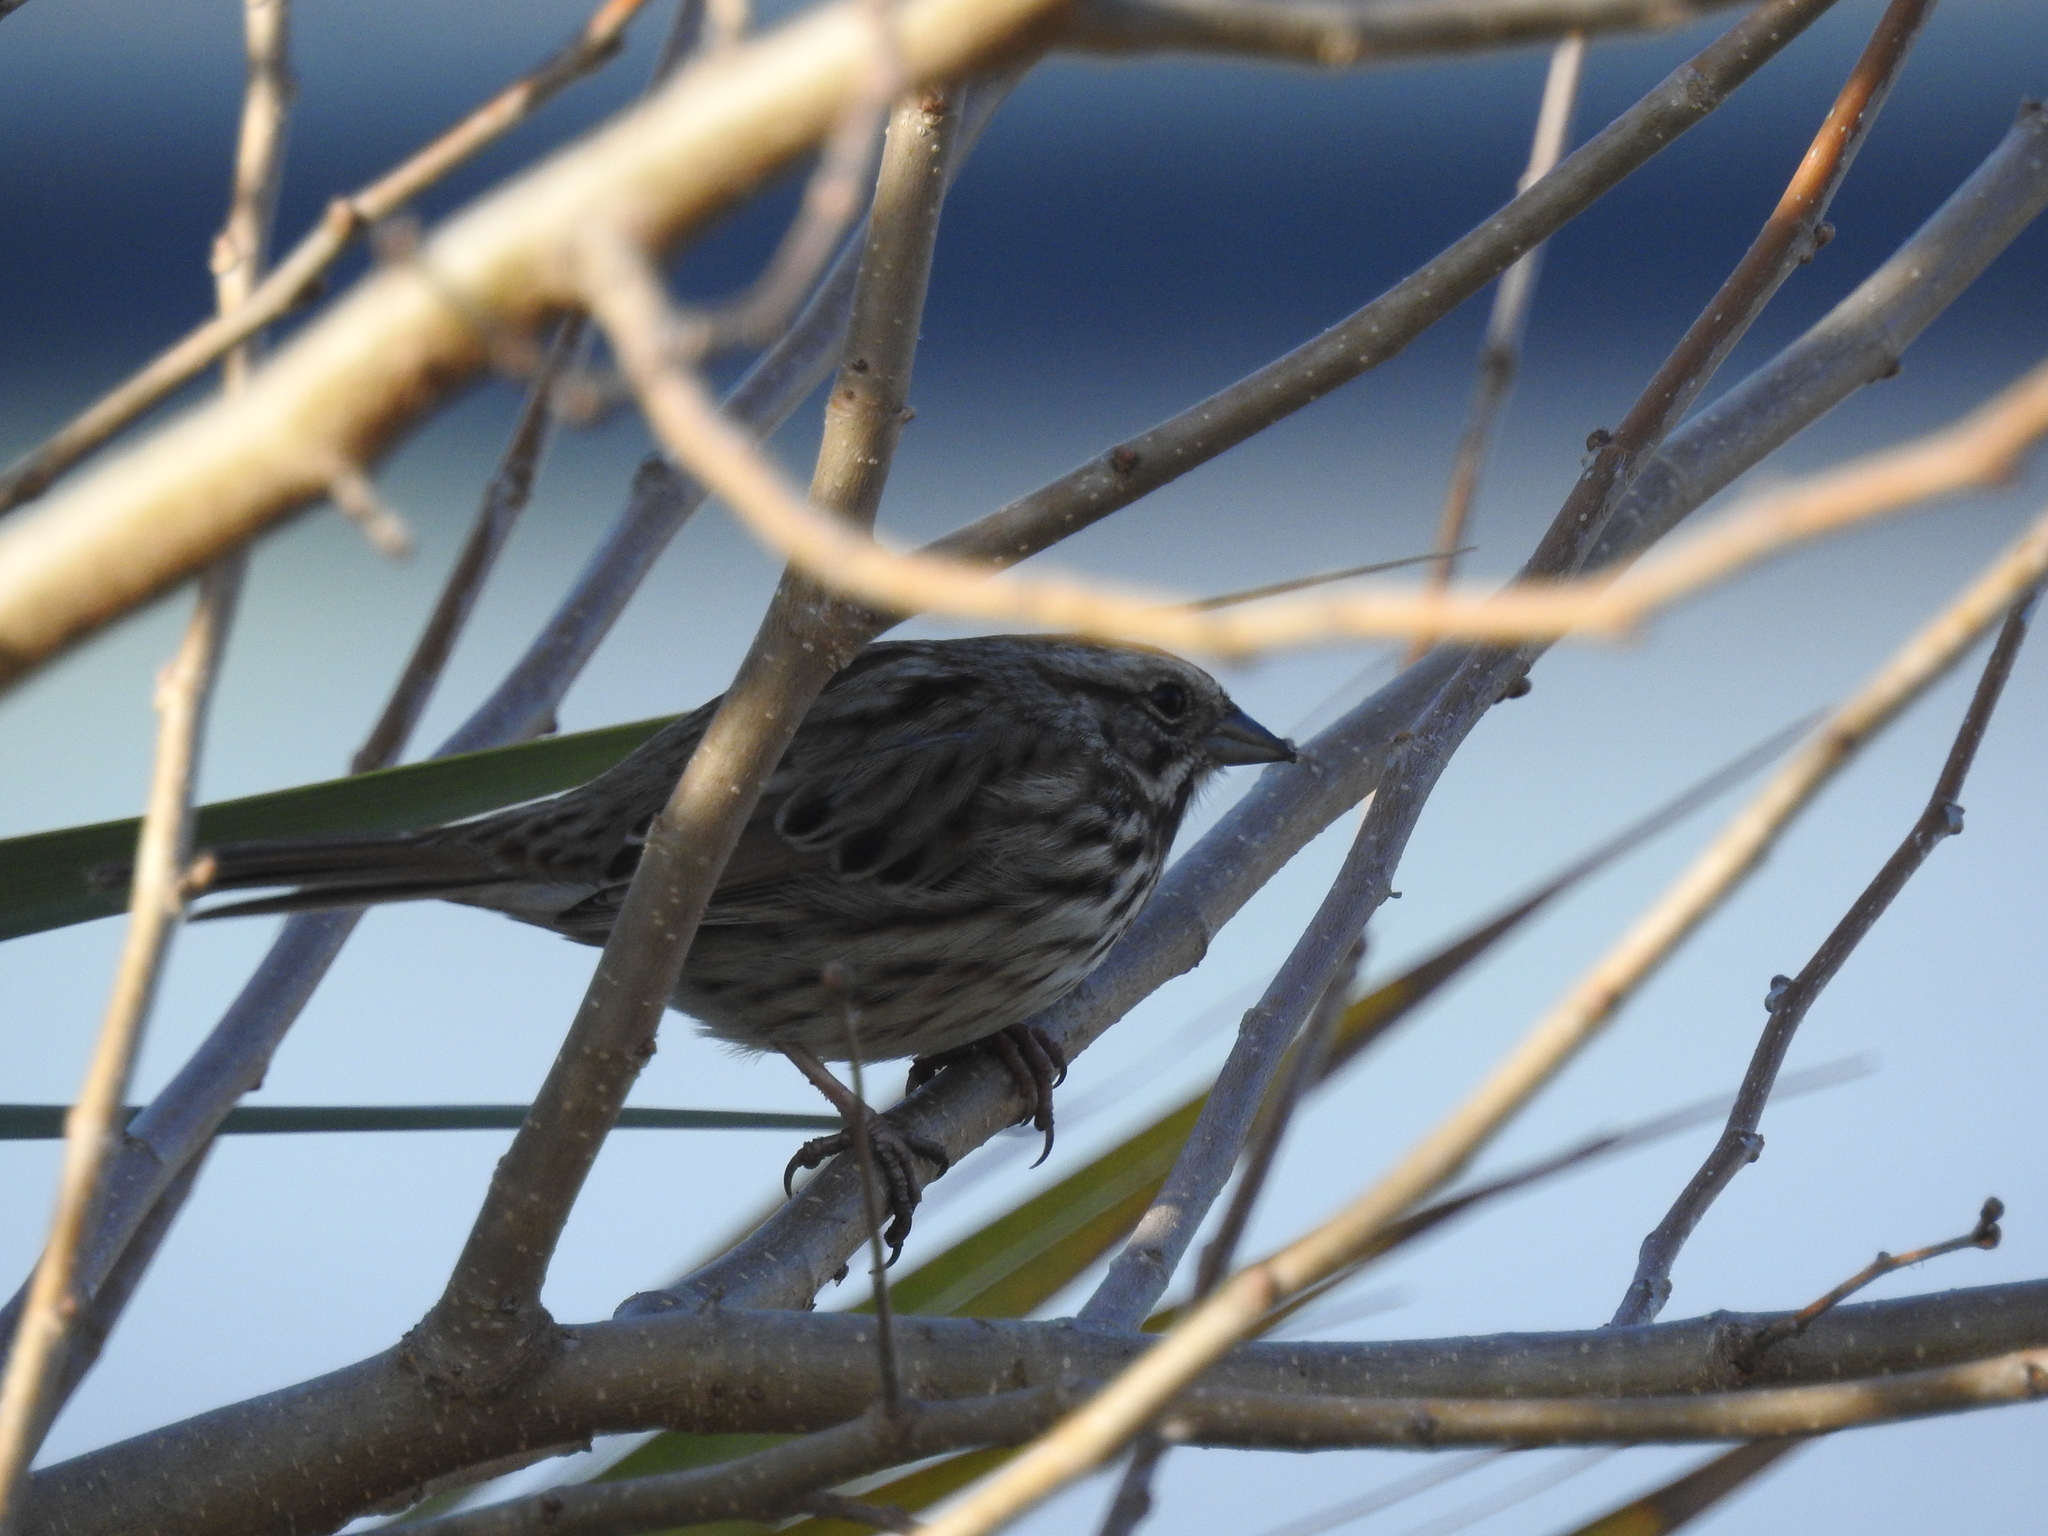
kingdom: Animalia
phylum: Chordata
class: Aves
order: Passeriformes
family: Passerellidae
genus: Melospiza
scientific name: Melospiza melodia
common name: Song sparrow
